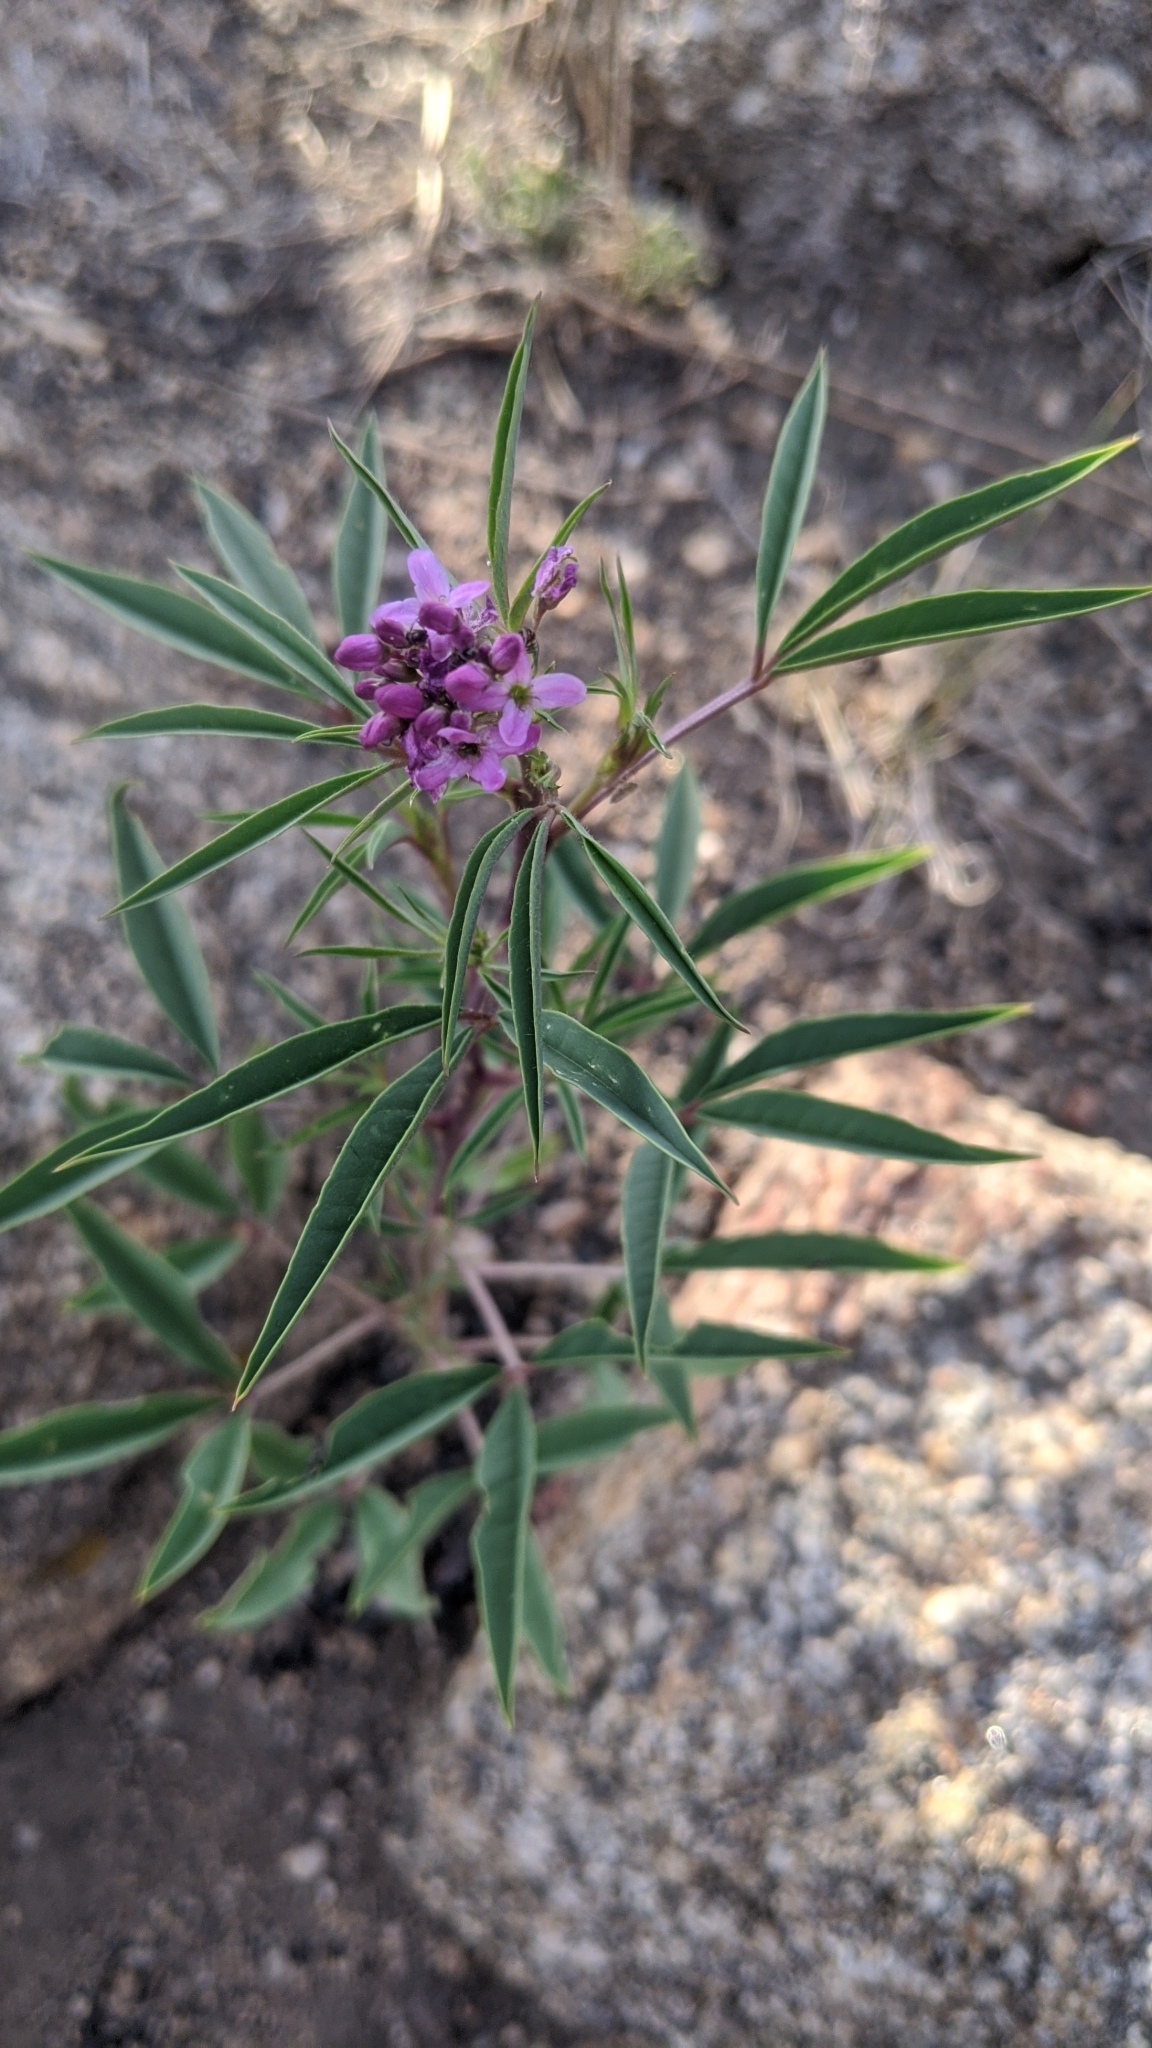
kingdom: Plantae
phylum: Tracheophyta
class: Magnoliopsida
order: Brassicales
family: Cleomaceae
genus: Cleomella
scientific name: Cleomella serrulata
